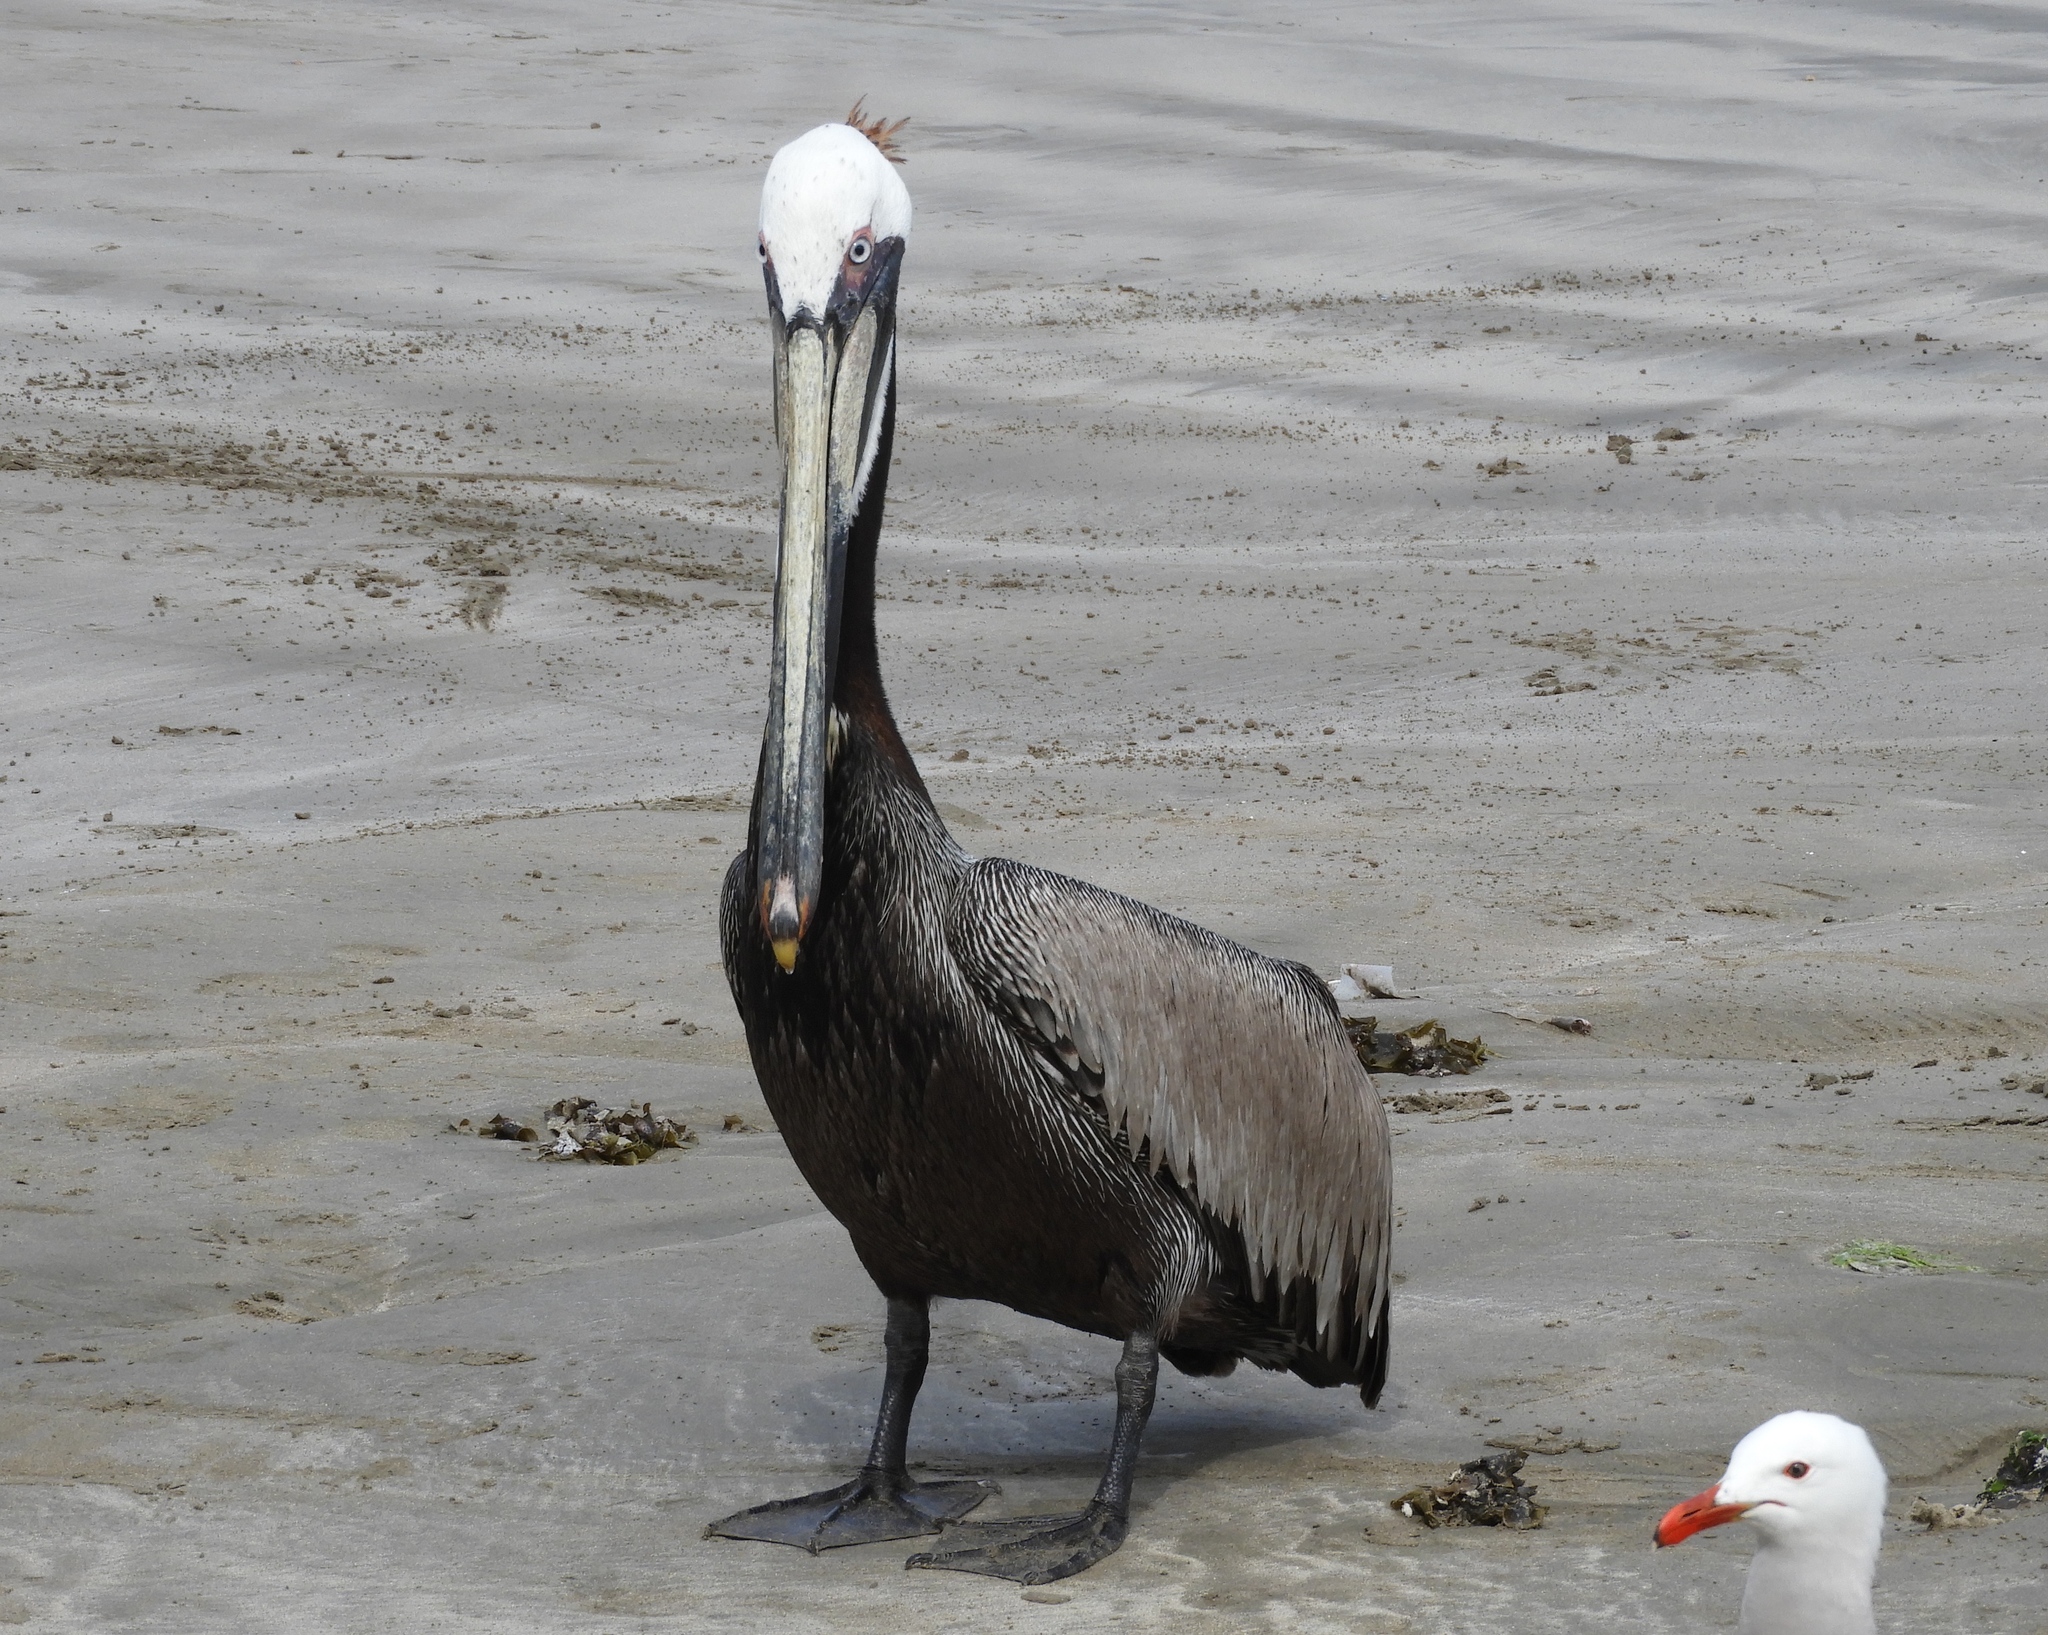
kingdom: Animalia
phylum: Chordata
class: Aves
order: Pelecaniformes
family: Pelecanidae
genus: Pelecanus
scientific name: Pelecanus occidentalis
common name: Brown pelican
